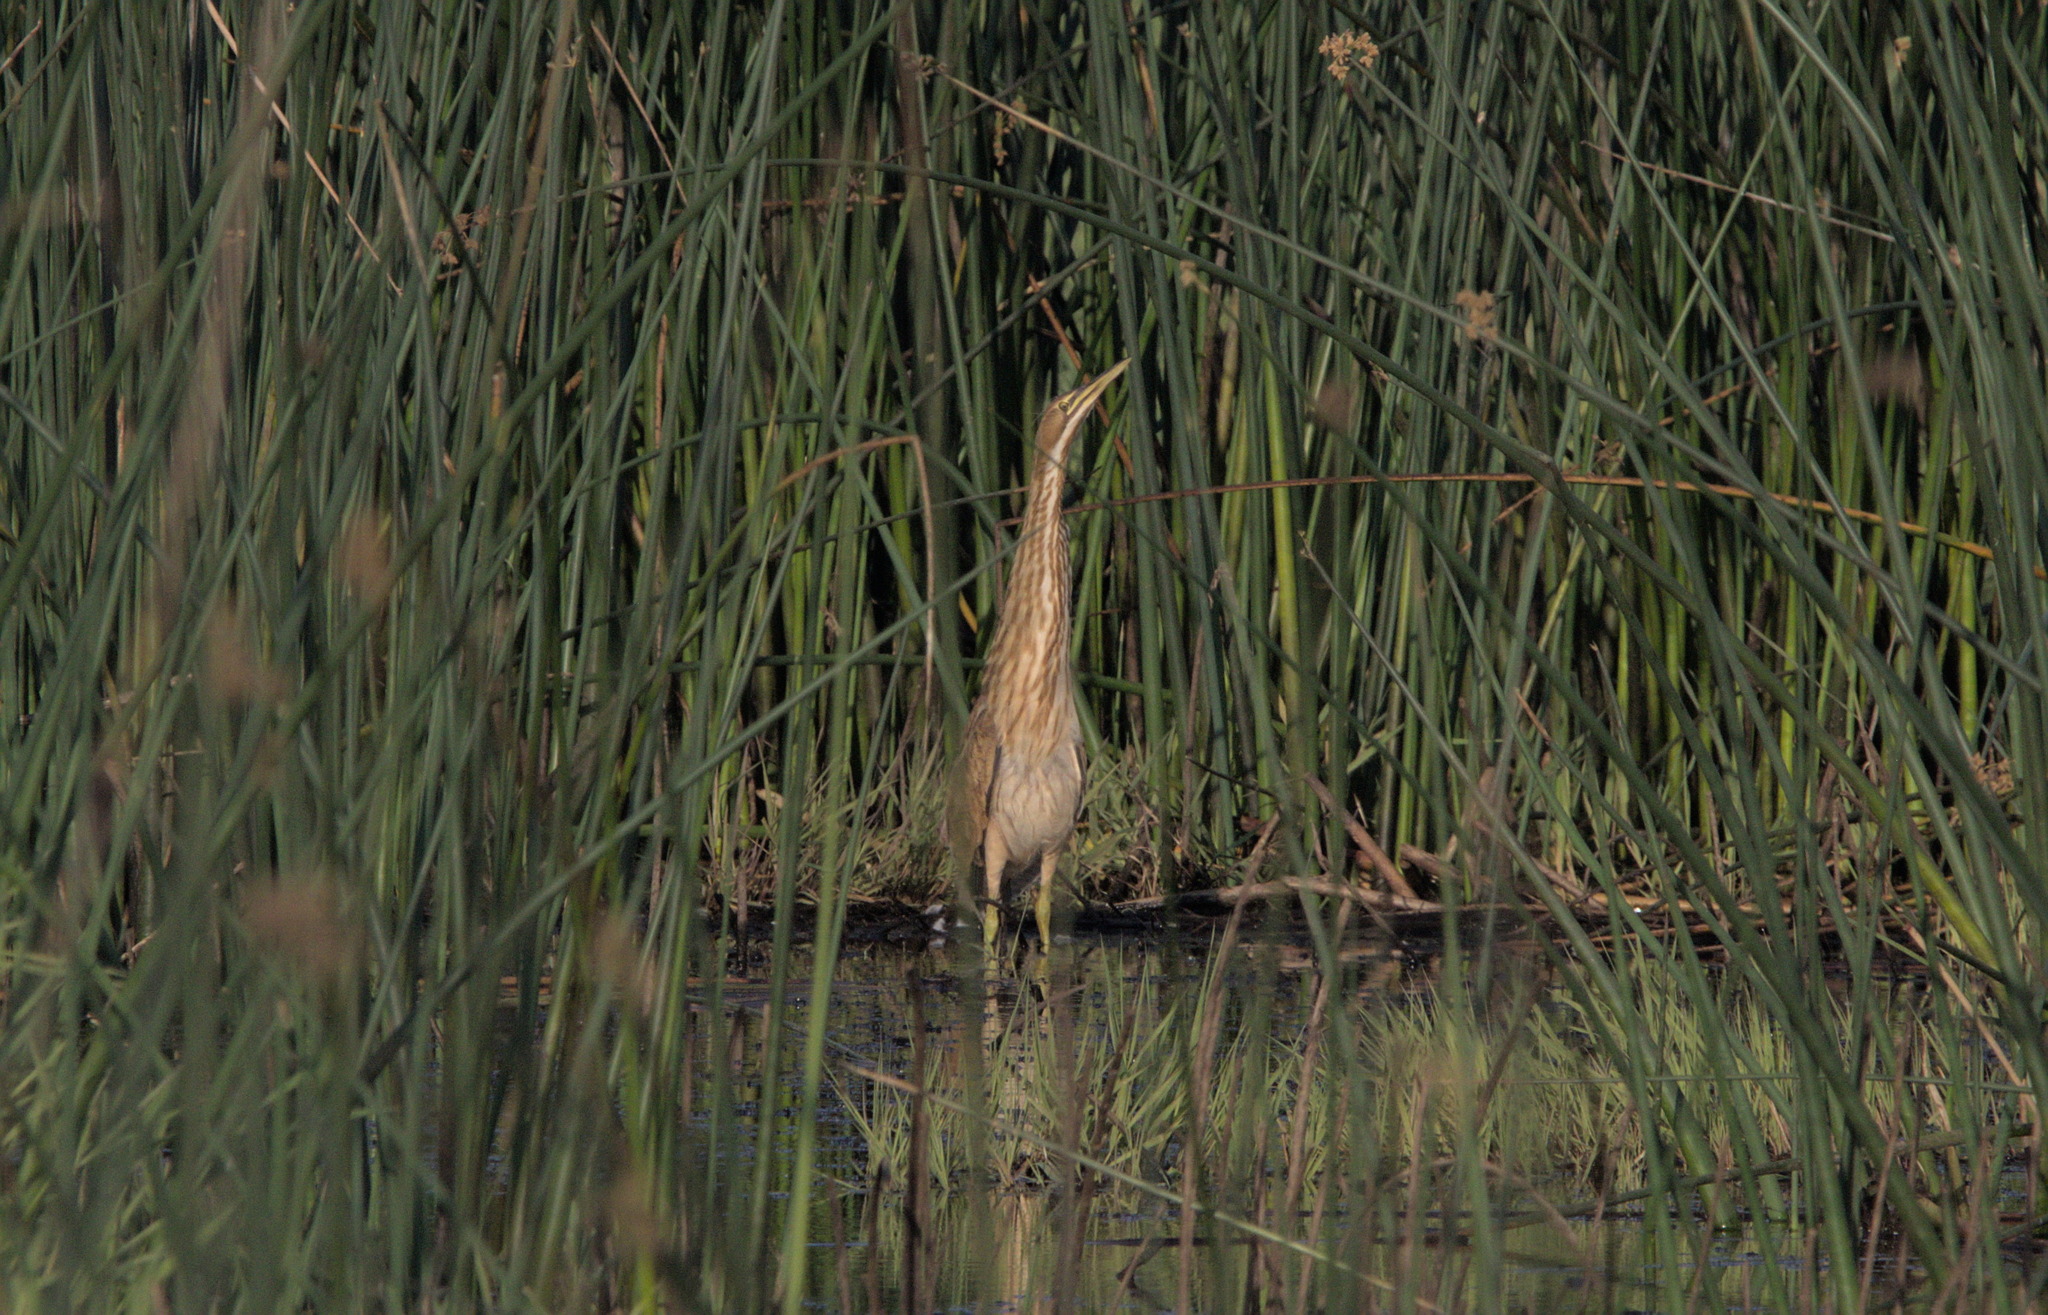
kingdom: Animalia
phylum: Chordata
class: Aves
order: Pelecaniformes
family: Ardeidae
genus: Botaurus
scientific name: Botaurus lentiginosus
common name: American bittern
